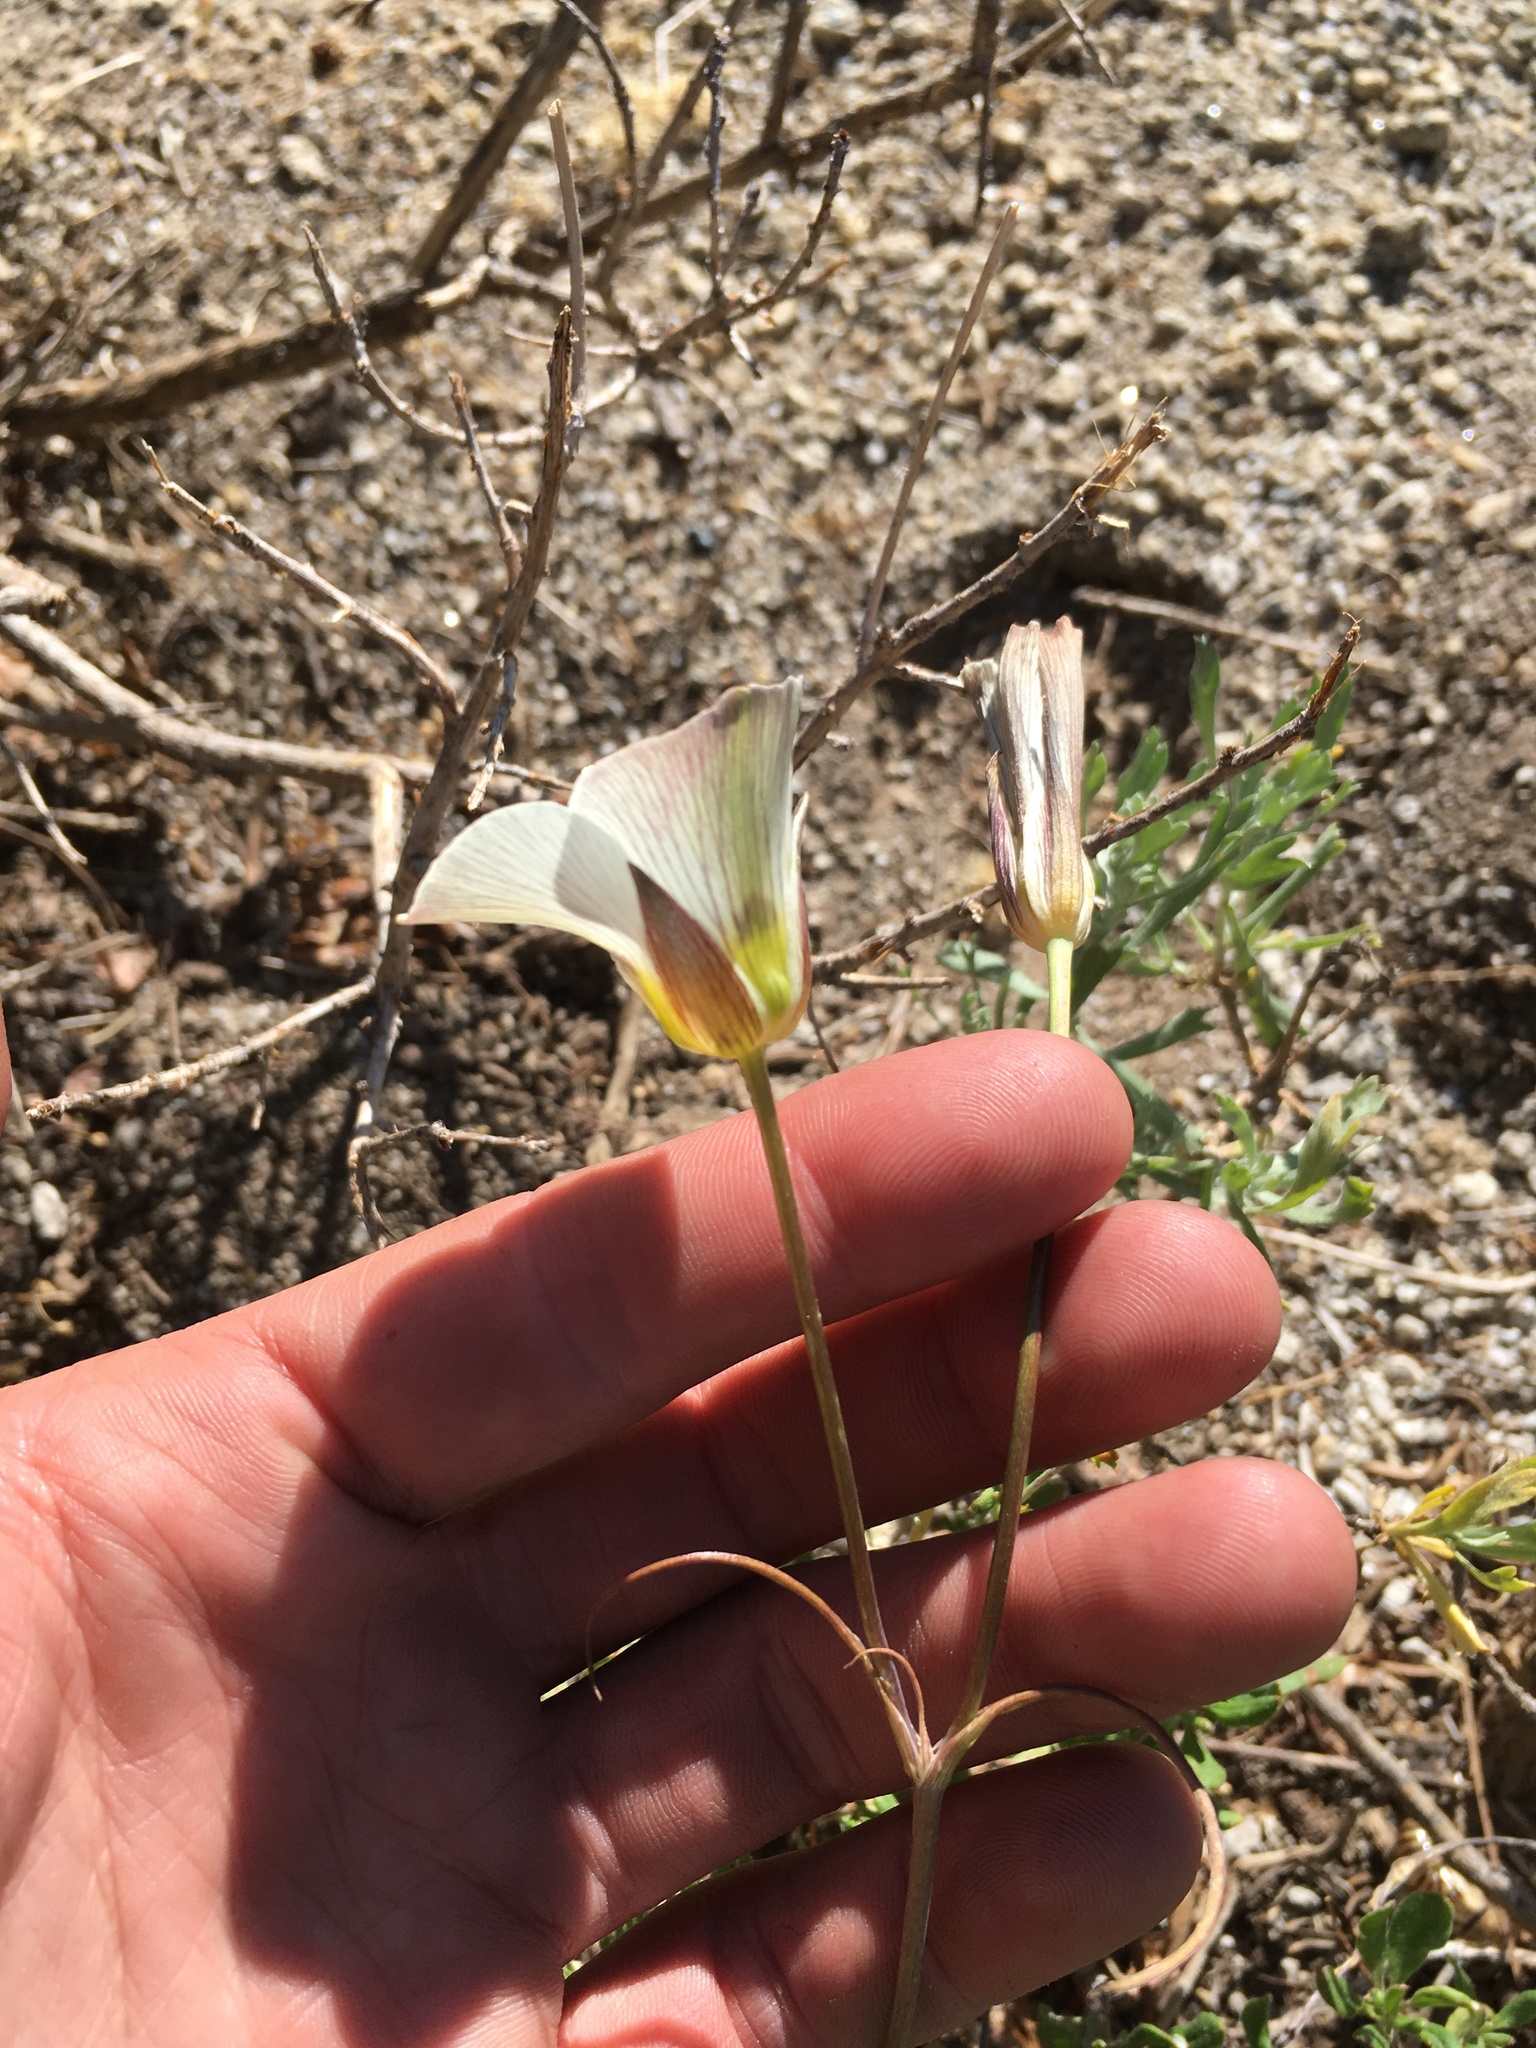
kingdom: Plantae
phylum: Tracheophyta
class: Liliopsida
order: Liliales
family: Liliaceae
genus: Calochortus
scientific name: Calochortus leichtlinii
